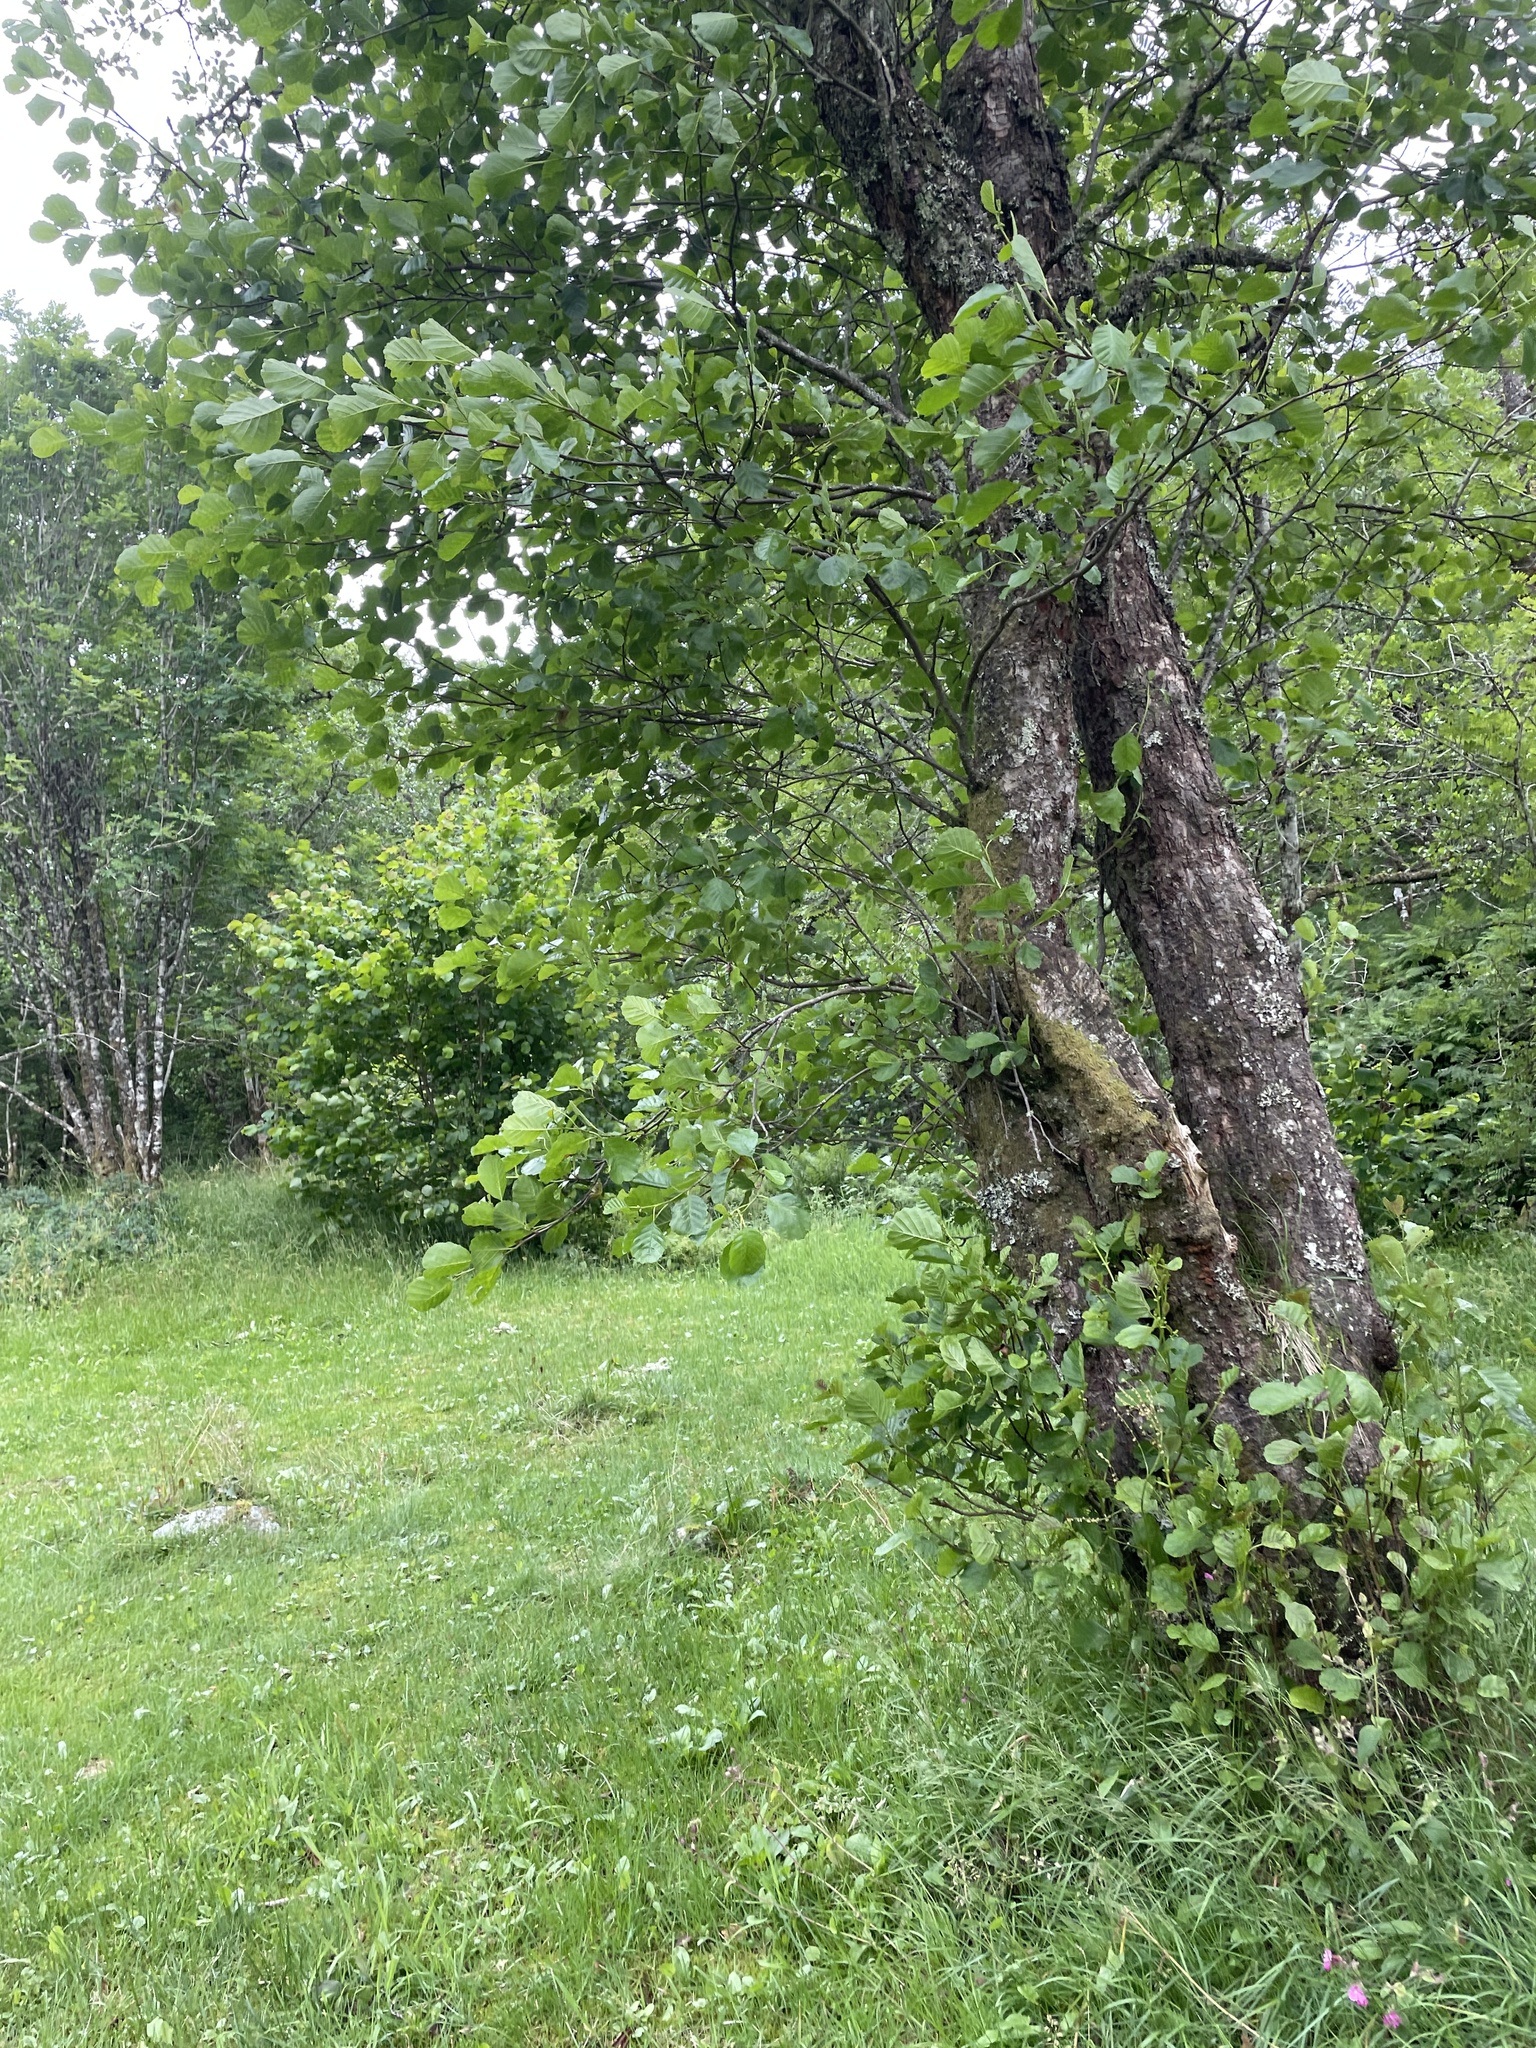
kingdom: Plantae
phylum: Tracheophyta
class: Magnoliopsida
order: Fagales
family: Betulaceae
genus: Alnus
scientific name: Alnus glutinosa
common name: Black alder
